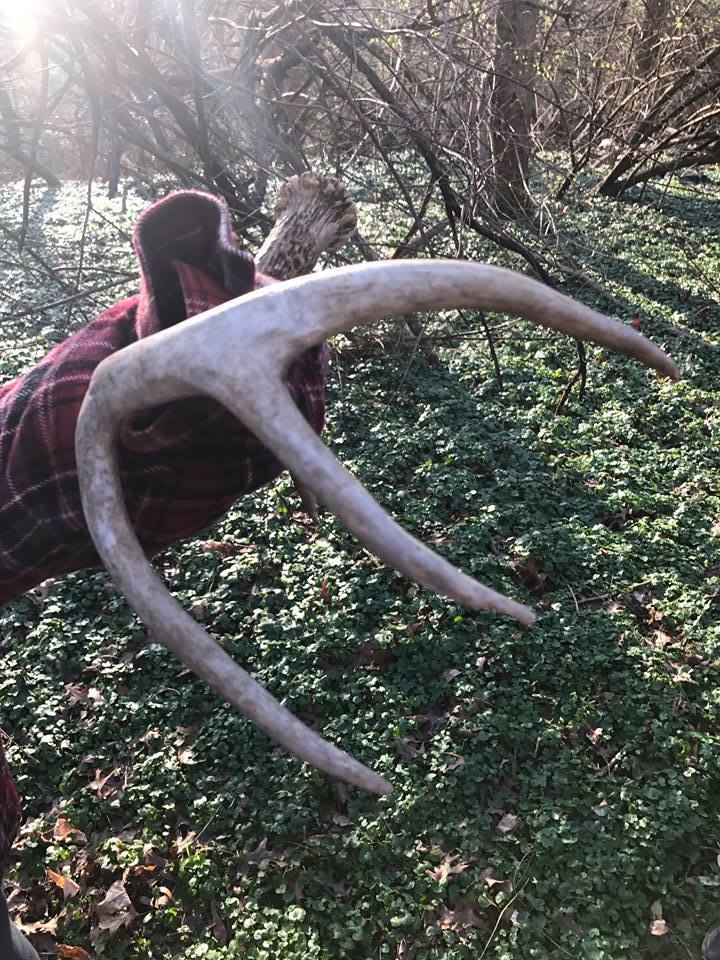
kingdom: Animalia
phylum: Chordata
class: Mammalia
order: Artiodactyla
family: Cervidae
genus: Odocoileus
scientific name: Odocoileus virginianus
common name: White-tailed deer
